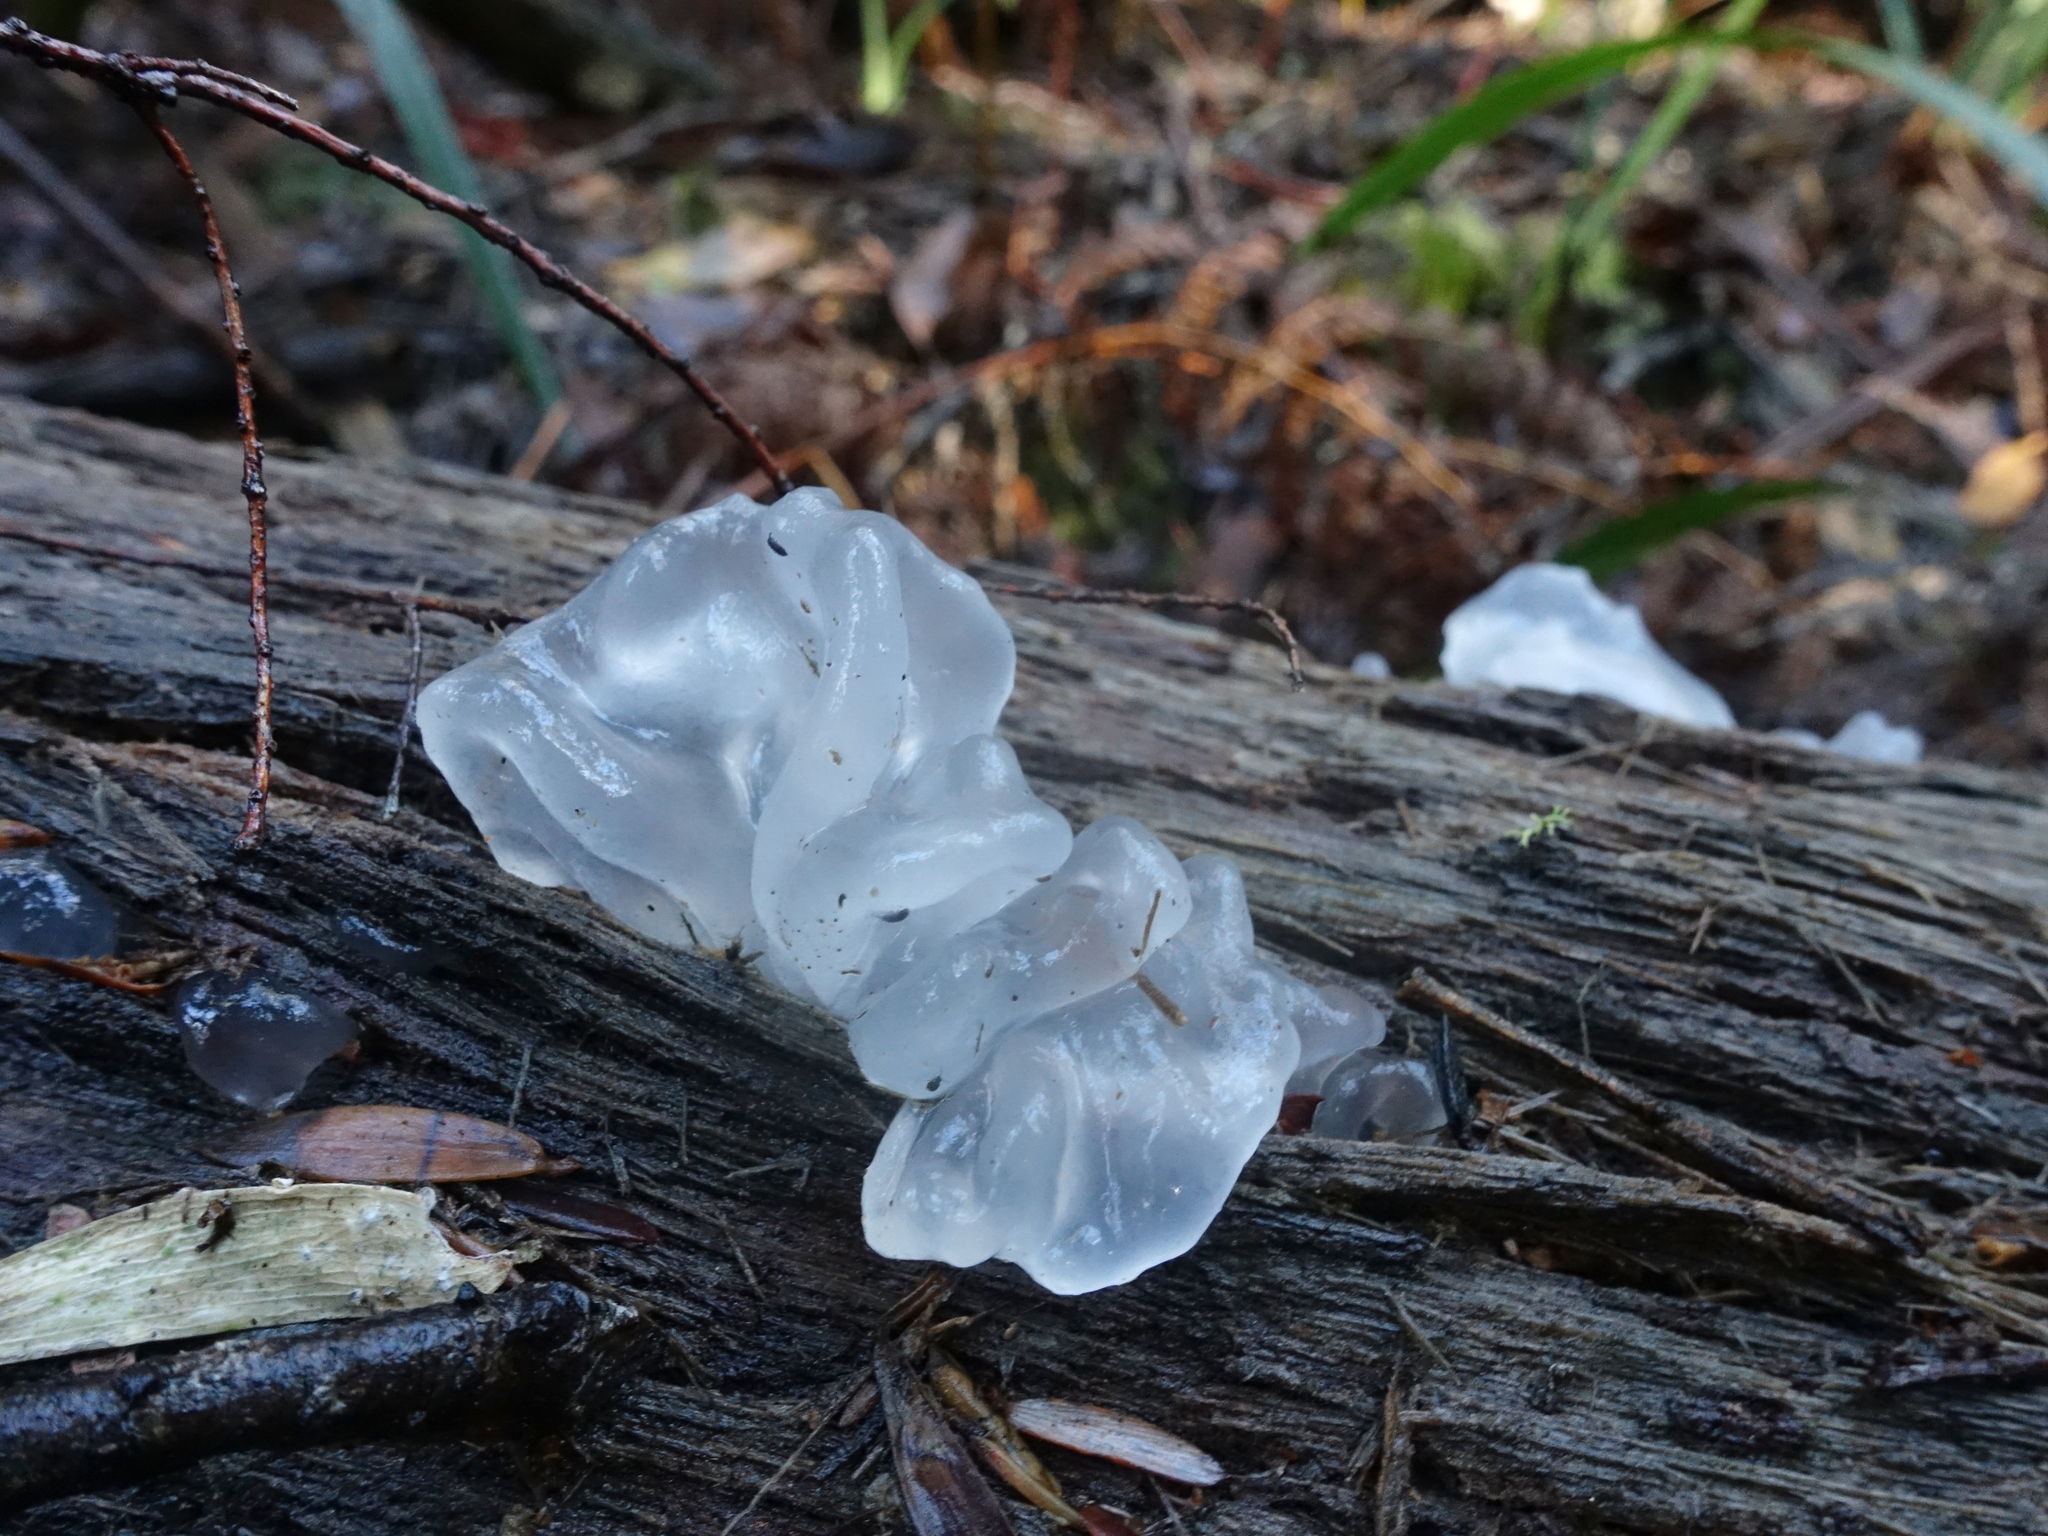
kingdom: Fungi
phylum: Basidiomycota
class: Tremellomycetes
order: Tremellales
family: Tremellaceae
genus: Tremella
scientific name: Tremella fuciformis
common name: Snow fungus
